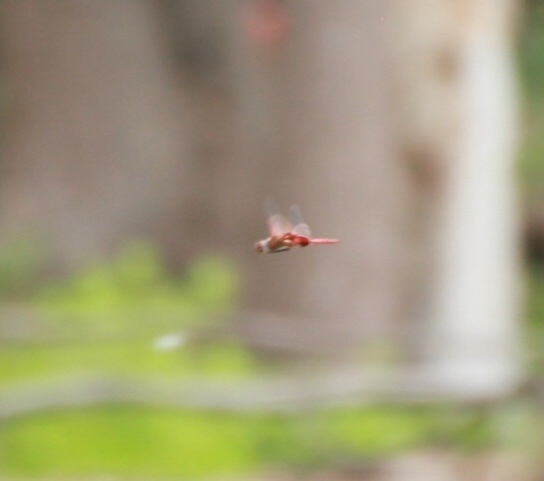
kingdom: Animalia
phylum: Arthropoda
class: Insecta
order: Odonata
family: Libellulidae
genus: Tramea
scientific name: Tramea onusta
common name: Red saddlebags
